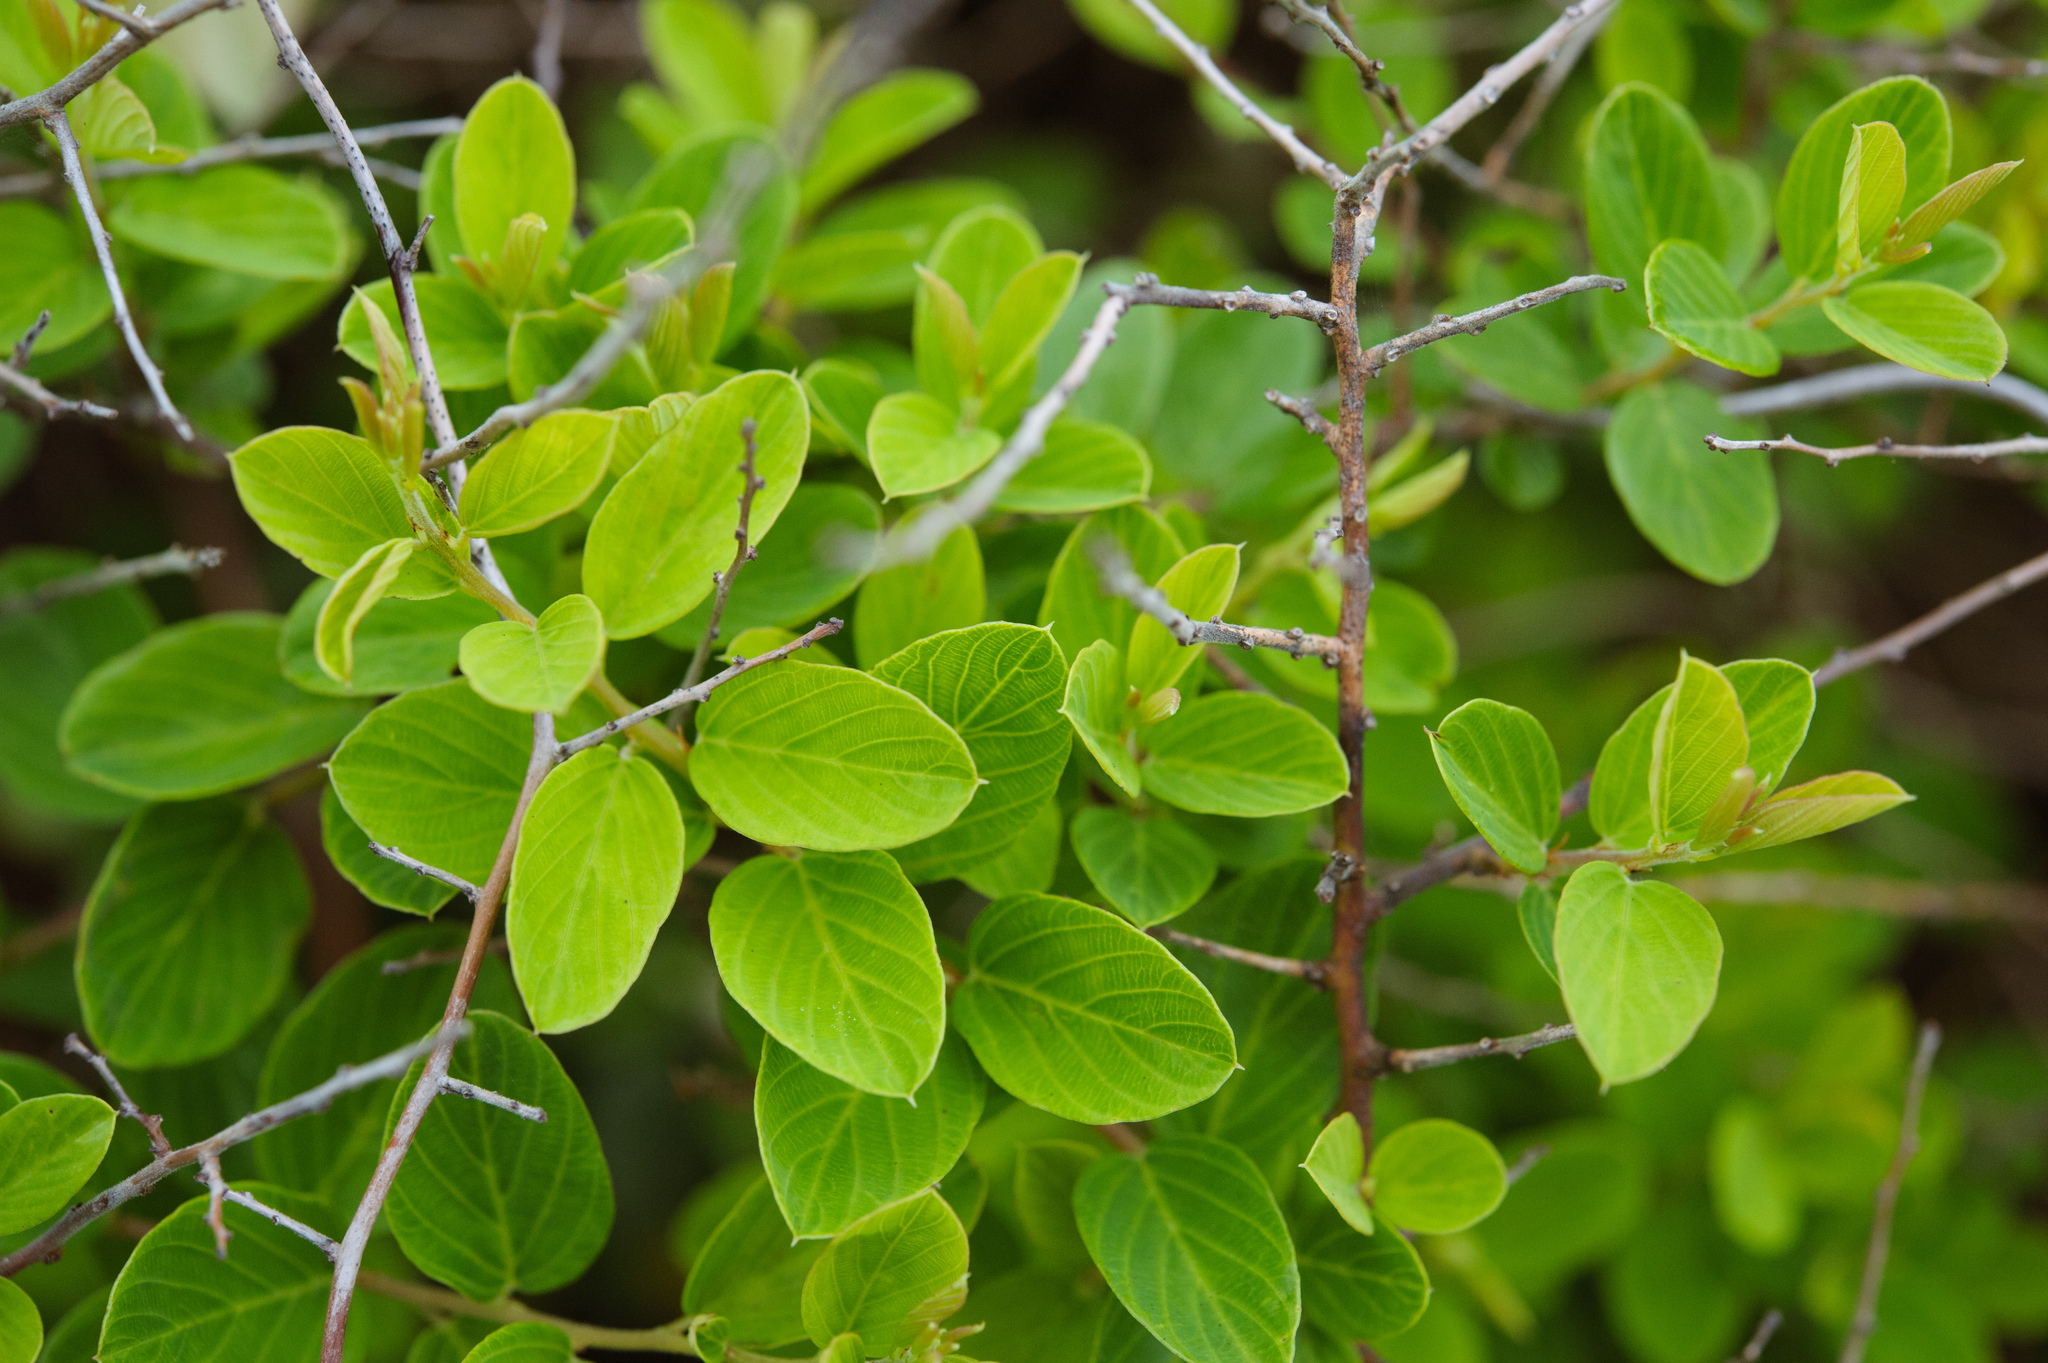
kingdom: Plantae
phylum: Tracheophyta
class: Magnoliopsida
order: Rosales
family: Rhamnaceae
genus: Berchemia
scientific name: Berchemia lineata
